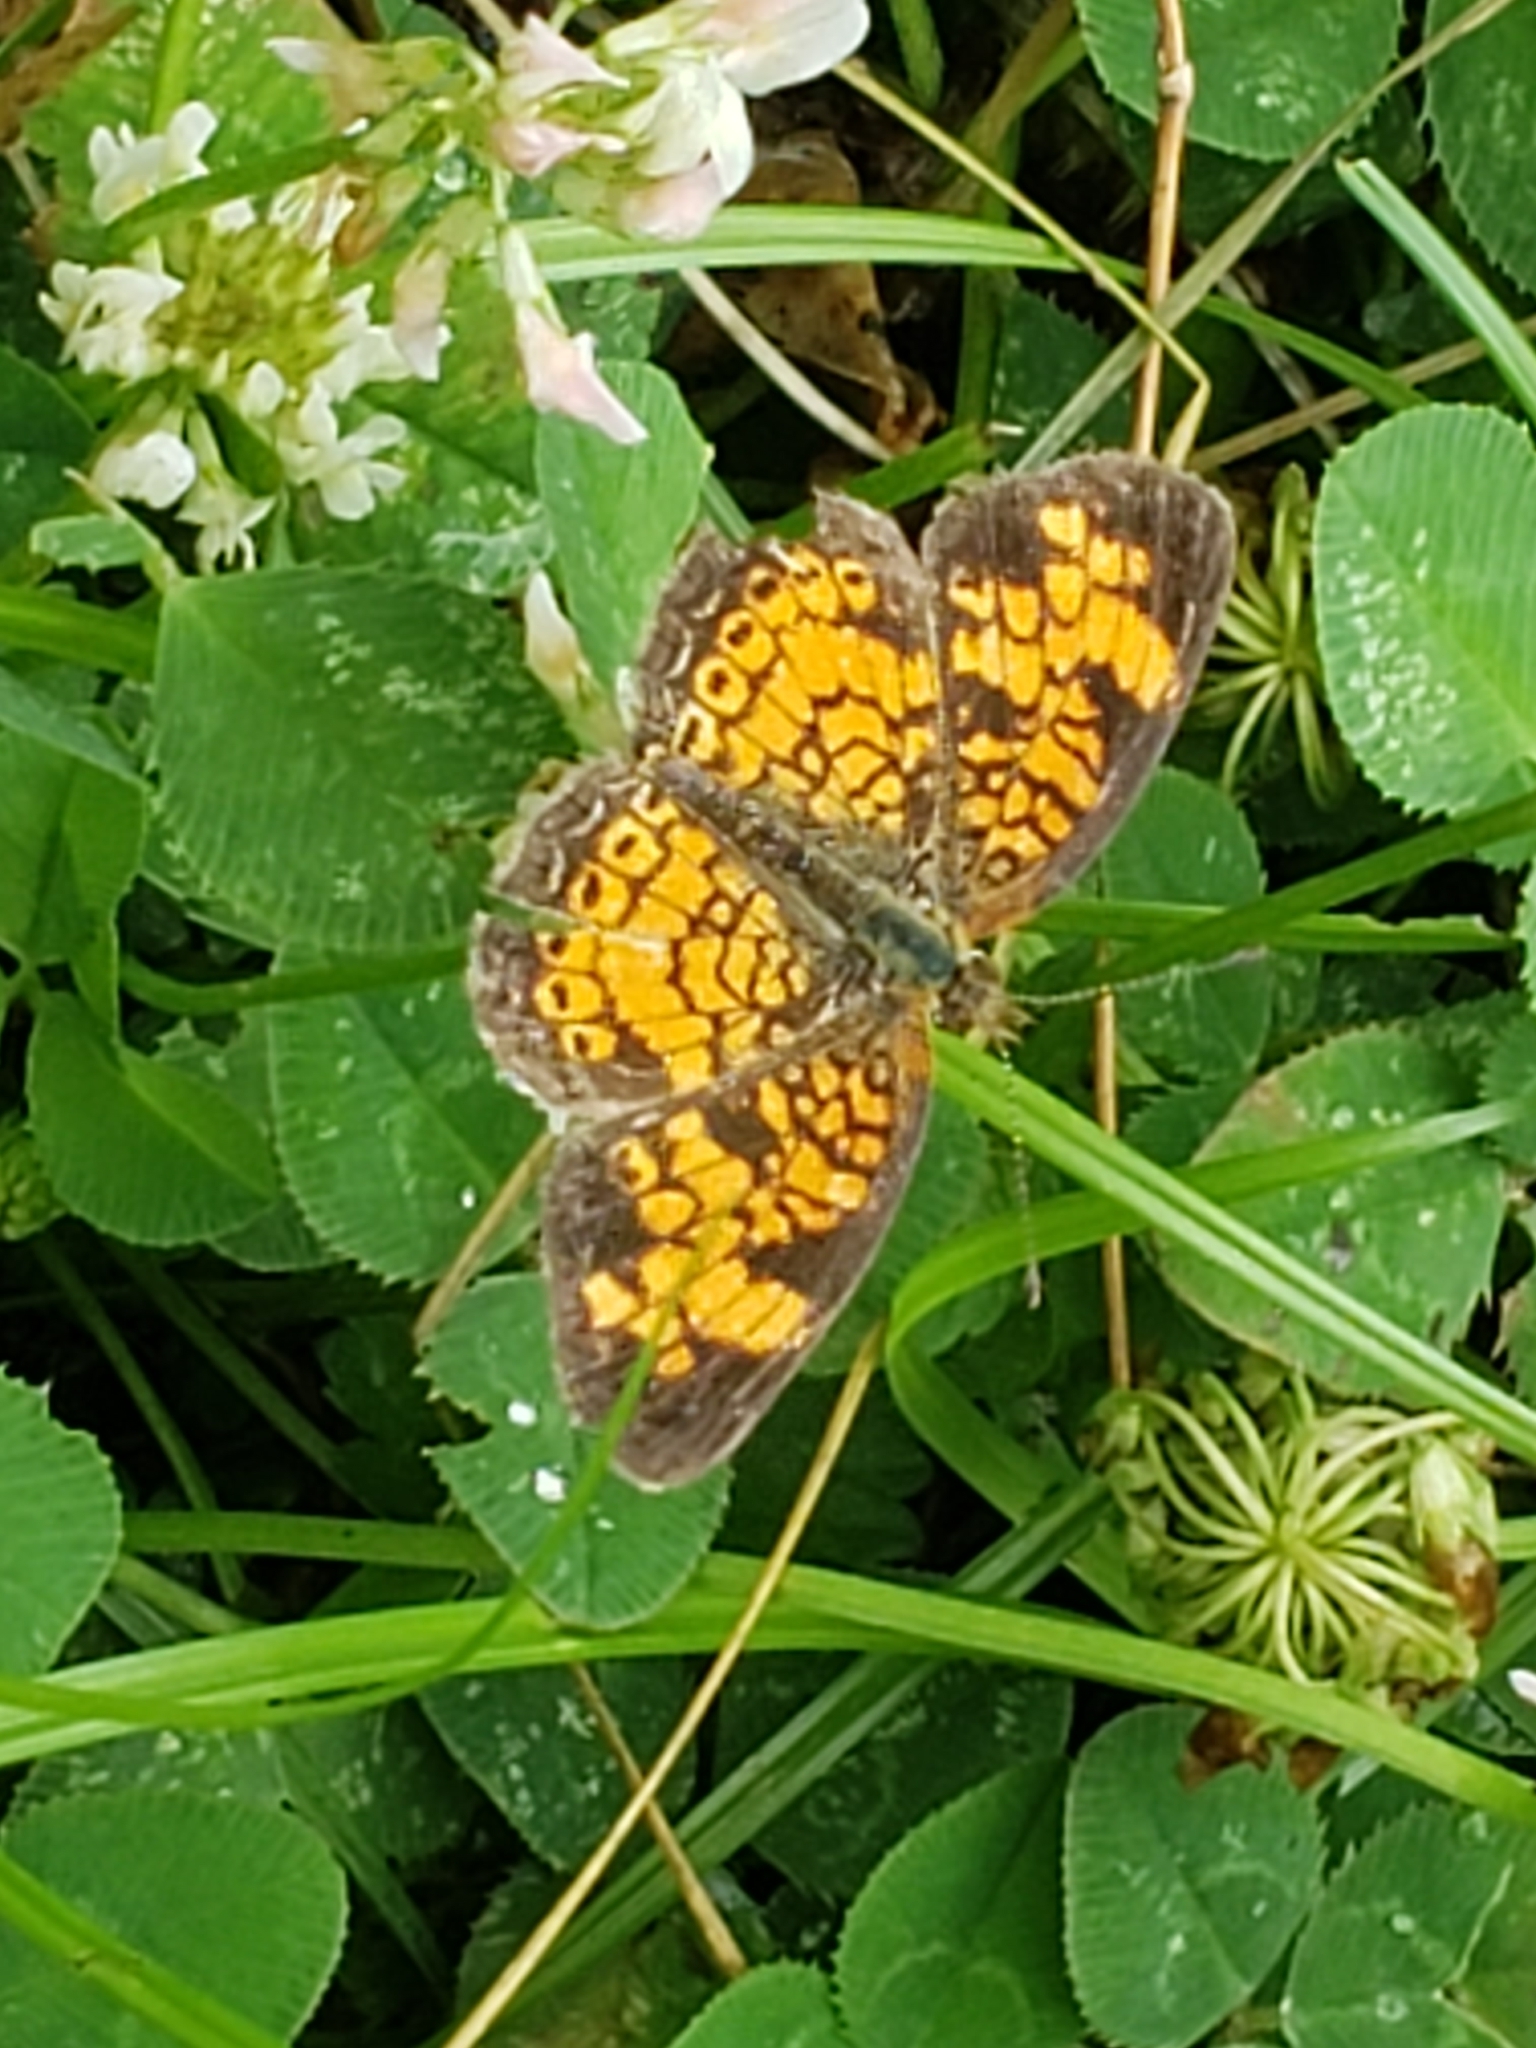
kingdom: Animalia
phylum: Arthropoda
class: Insecta
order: Lepidoptera
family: Nymphalidae
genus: Phyciodes
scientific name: Phyciodes tharos
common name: Pearl crescent
